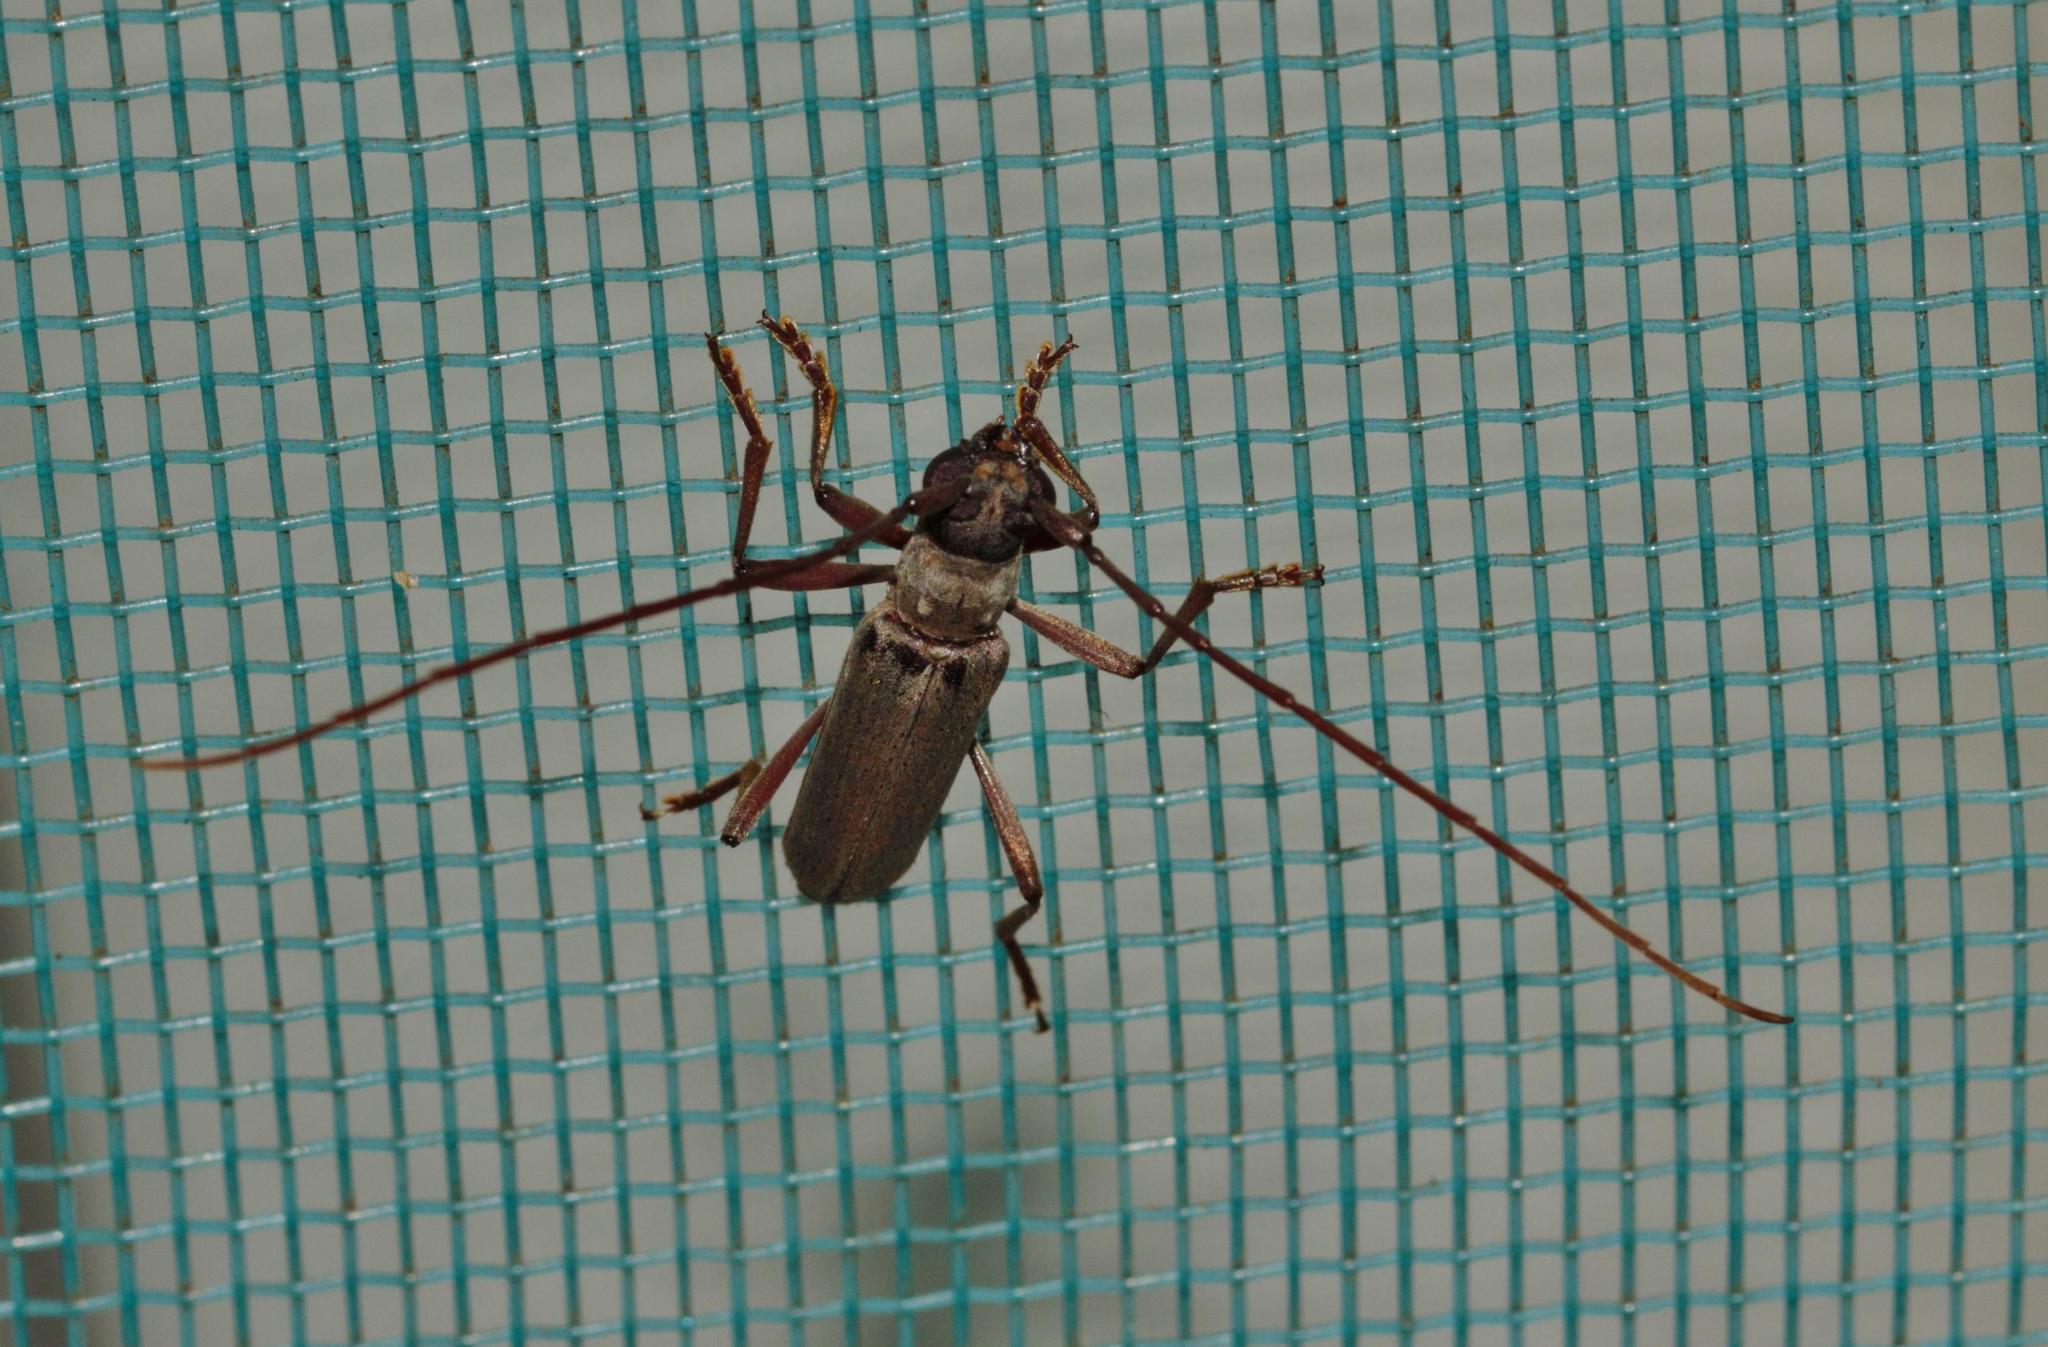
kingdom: Animalia
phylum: Arthropoda
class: Insecta
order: Coleoptera
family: Cerambycidae
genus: Myrsinus
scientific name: Myrsinus modestus
